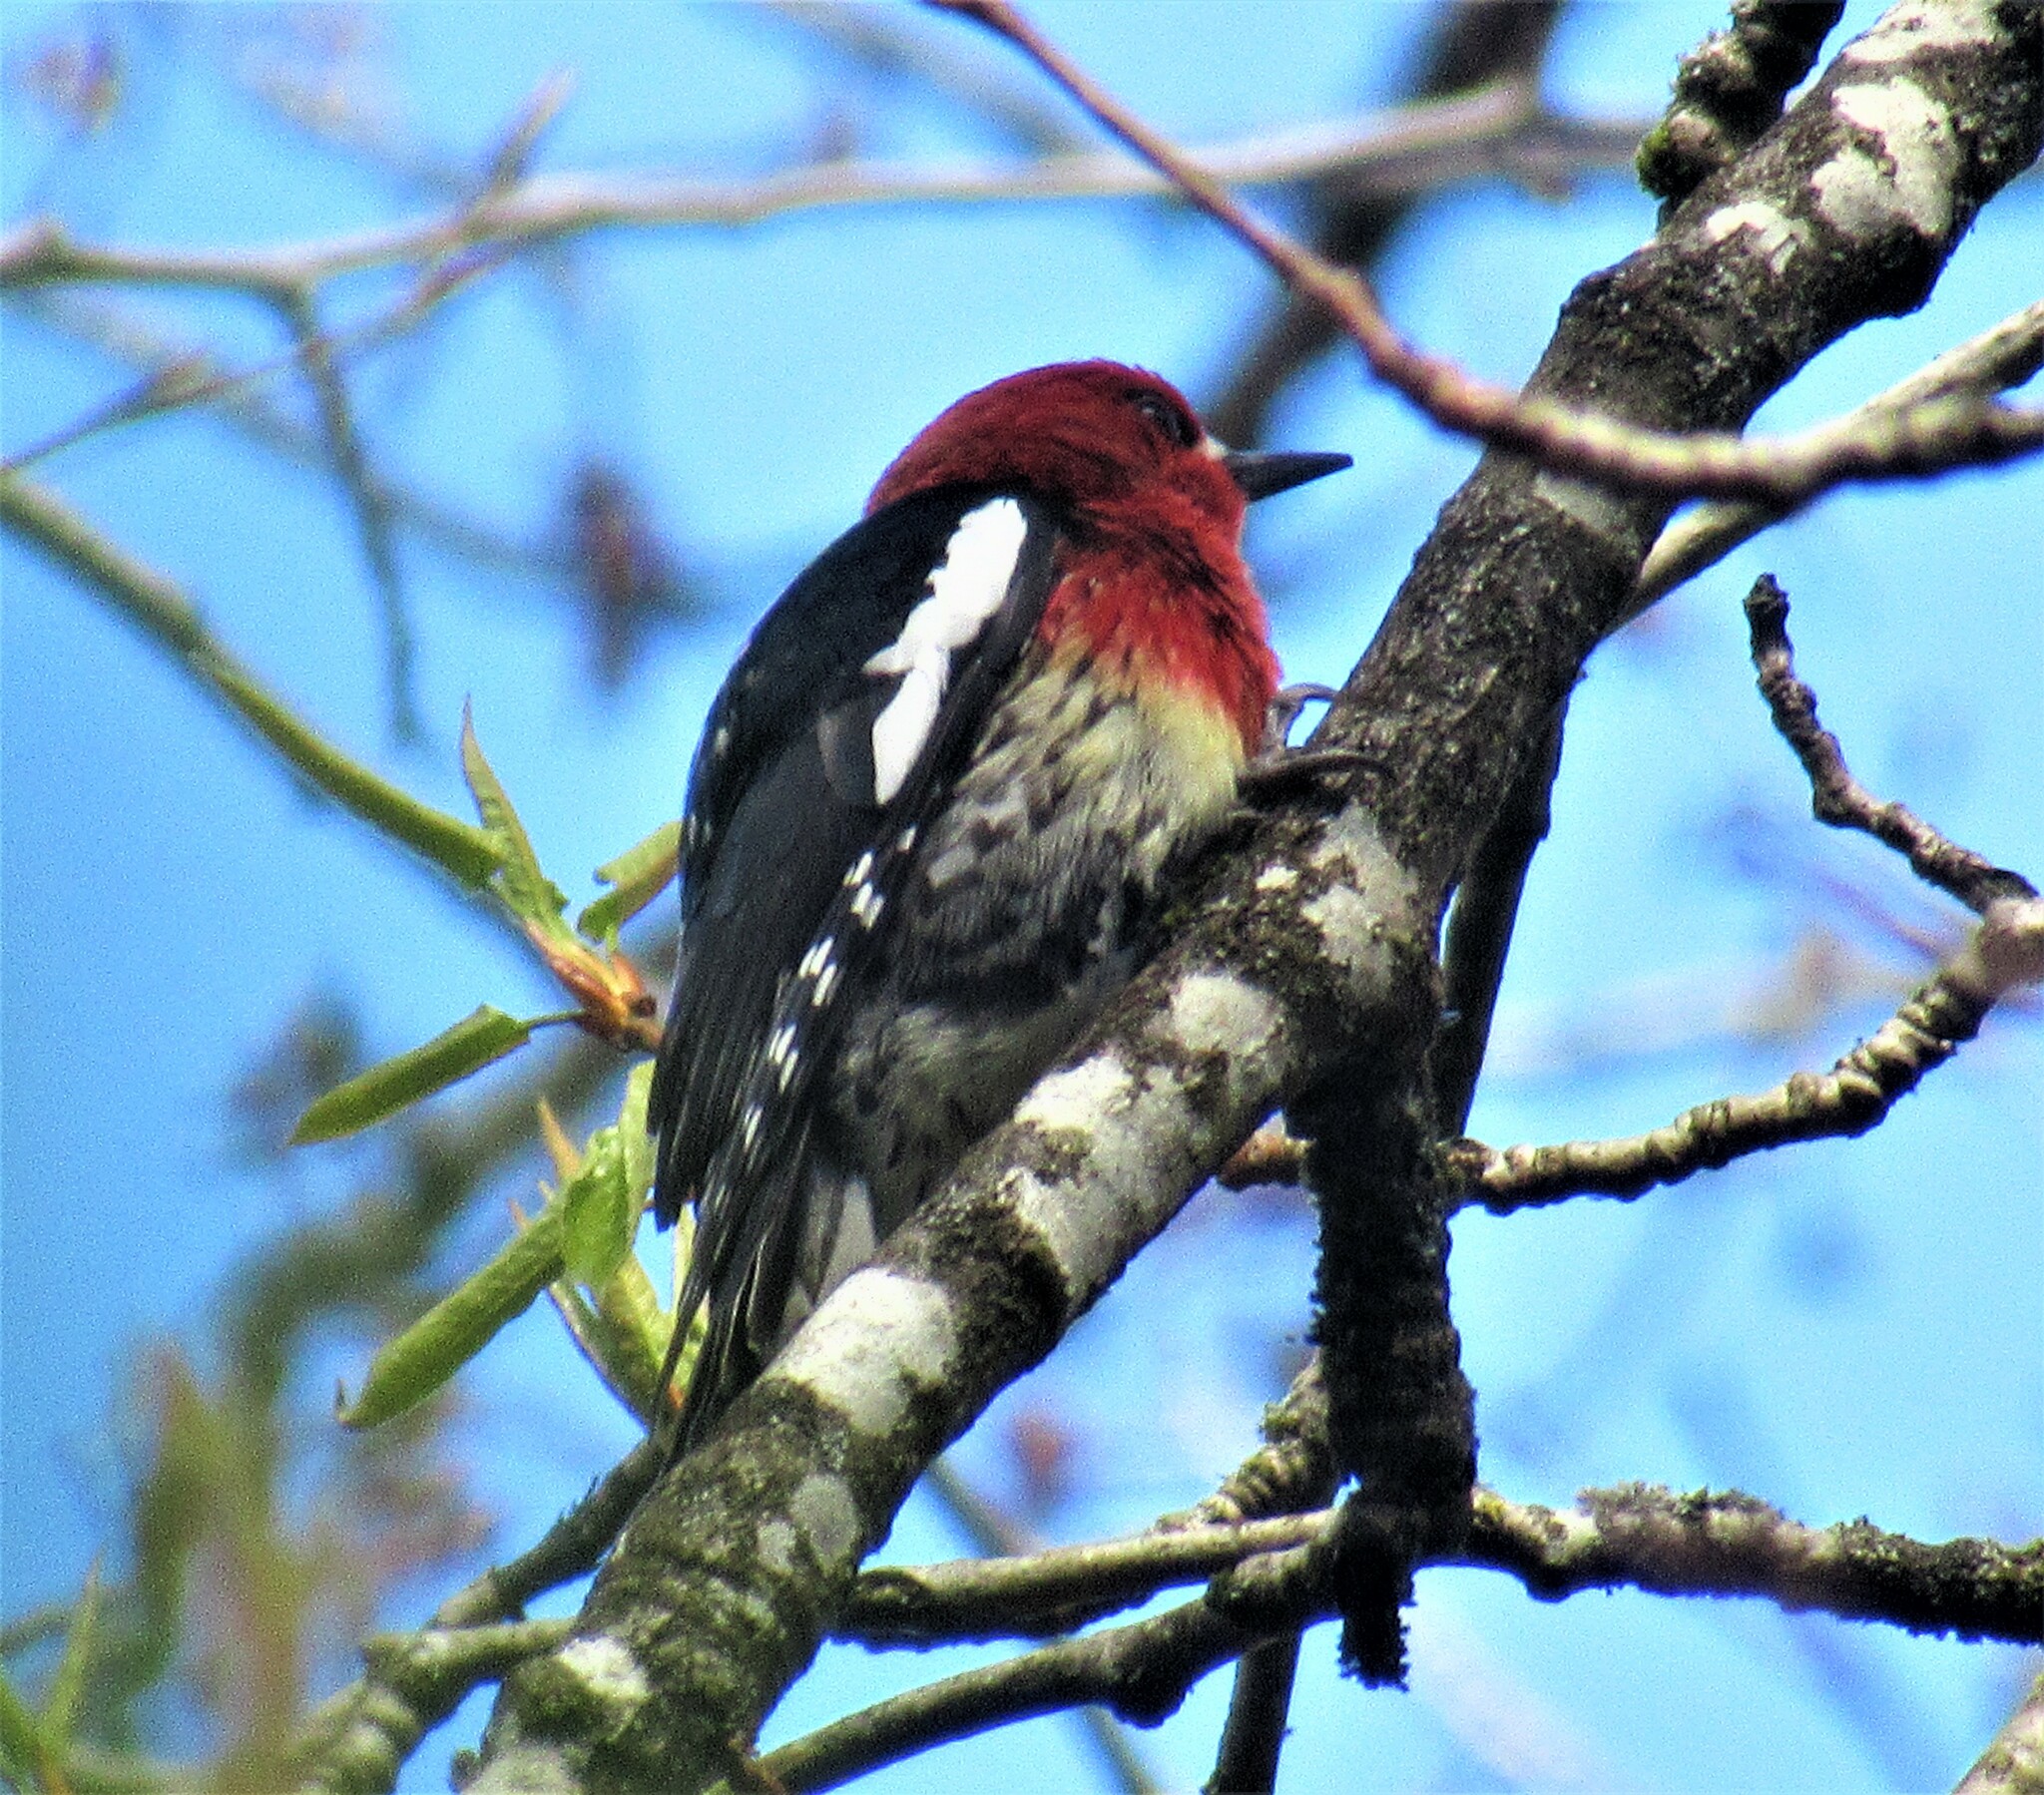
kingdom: Animalia
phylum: Chordata
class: Aves
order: Piciformes
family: Picidae
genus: Sphyrapicus
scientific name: Sphyrapicus ruber
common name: Red-breasted sapsucker
